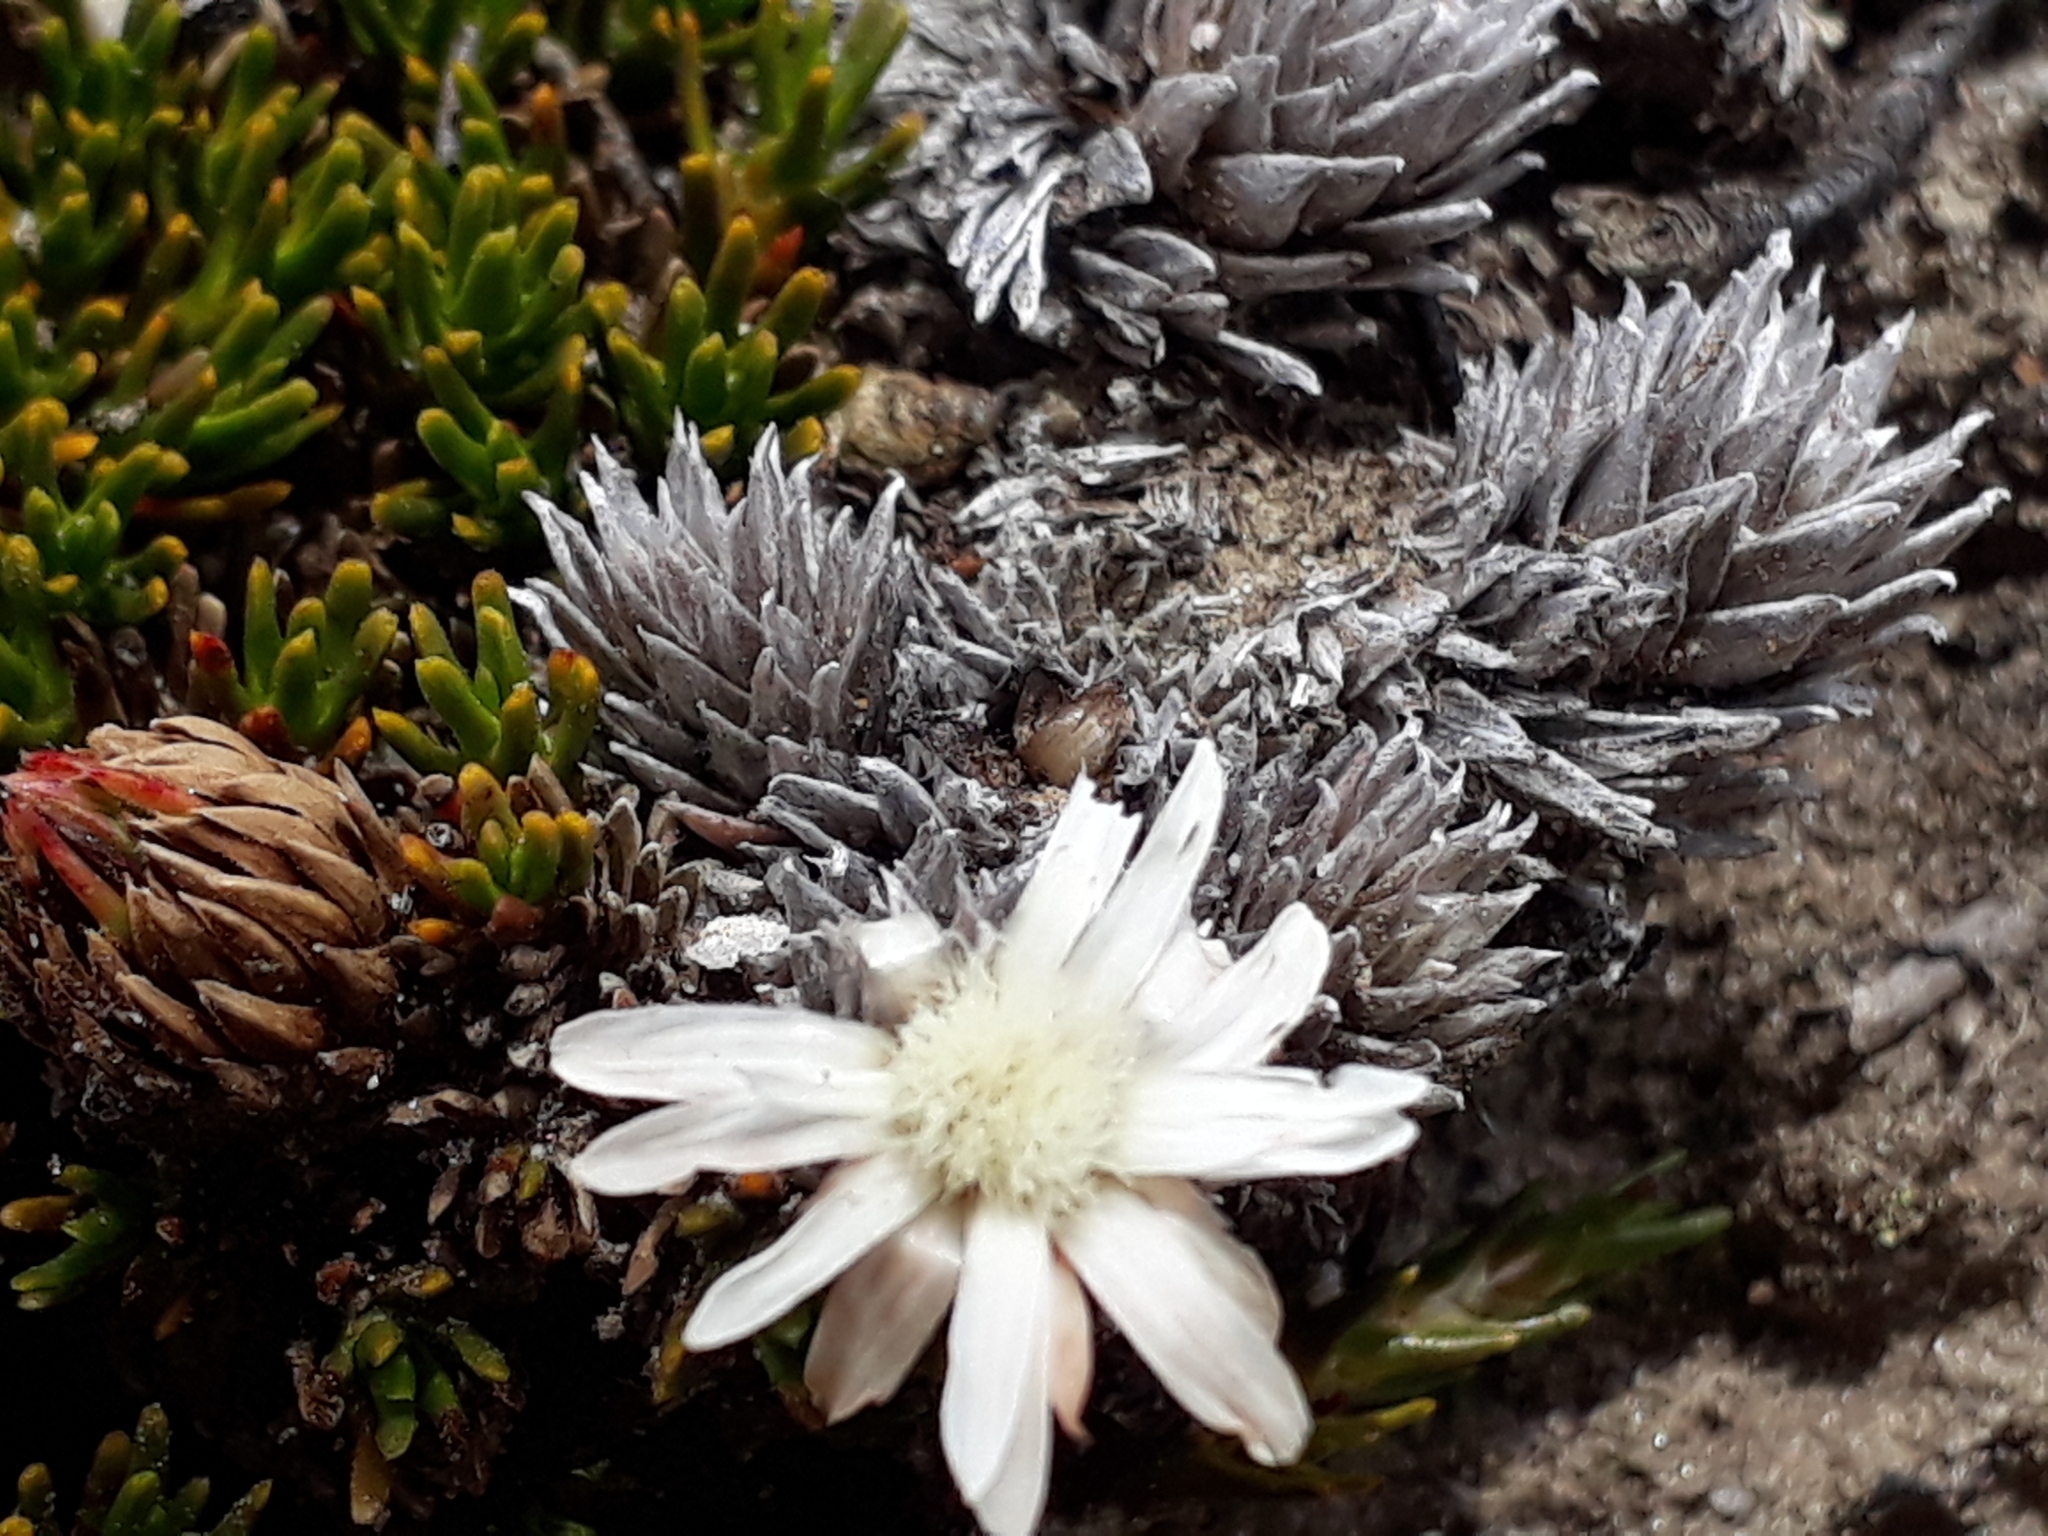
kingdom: Plantae
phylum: Tracheophyta
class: Magnoliopsida
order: Asterales
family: Asteraceae
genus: Raoulia
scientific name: Raoulia grandiflora
